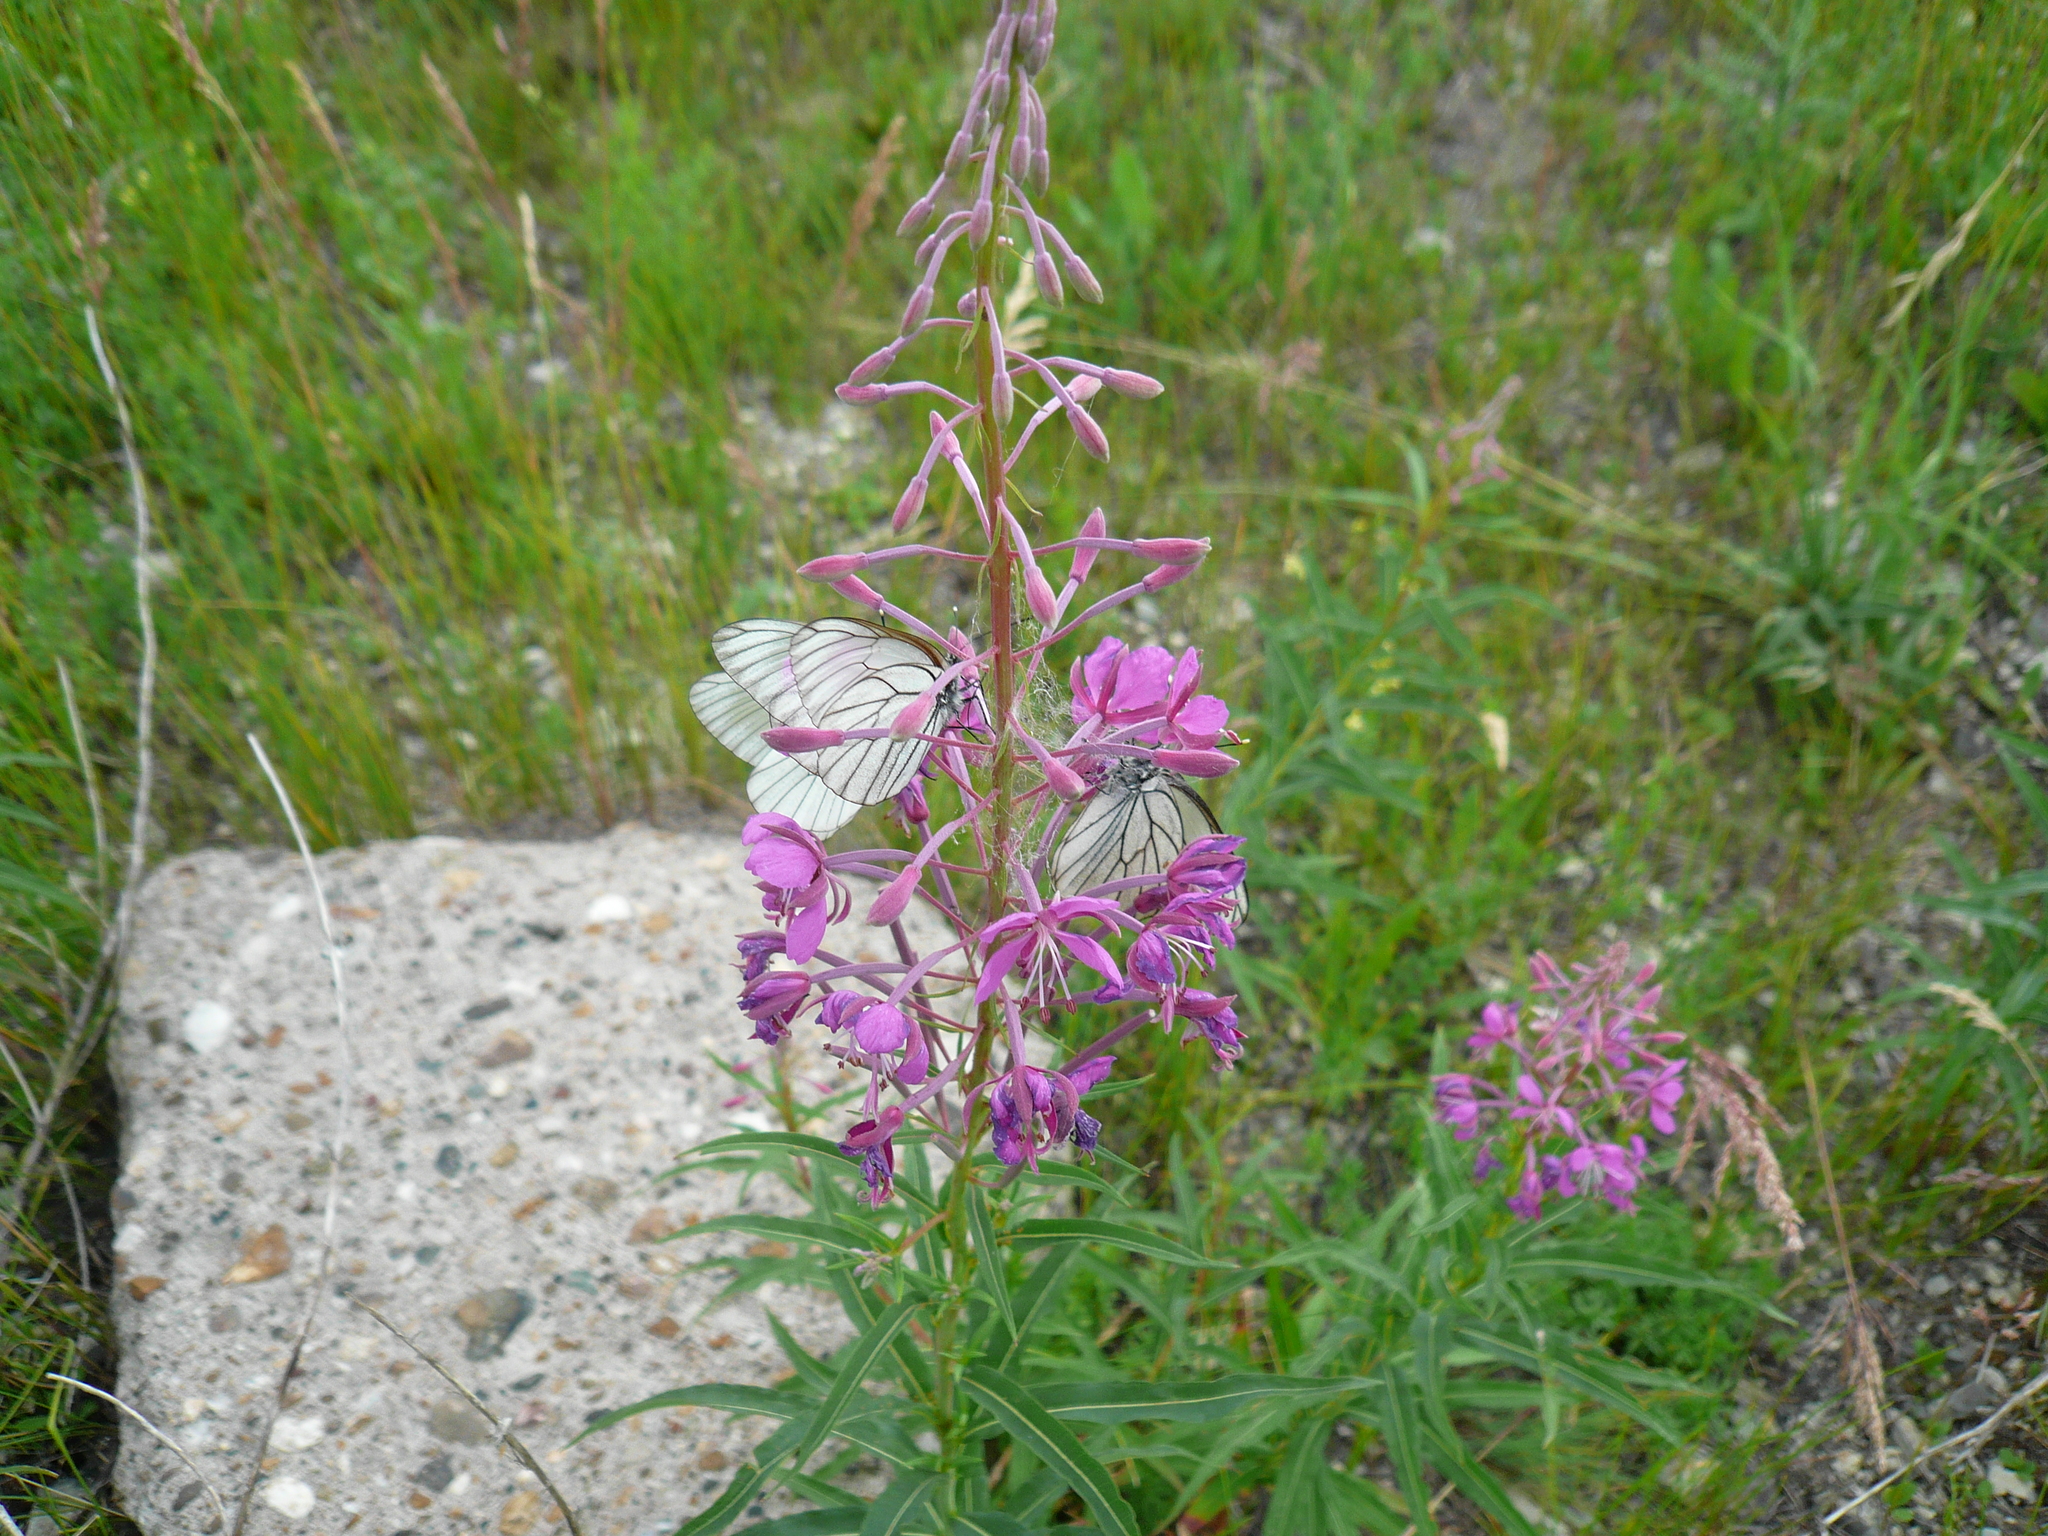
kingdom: Plantae
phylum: Tracheophyta
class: Magnoliopsida
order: Myrtales
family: Onagraceae
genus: Chamaenerion
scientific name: Chamaenerion angustifolium
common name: Fireweed
